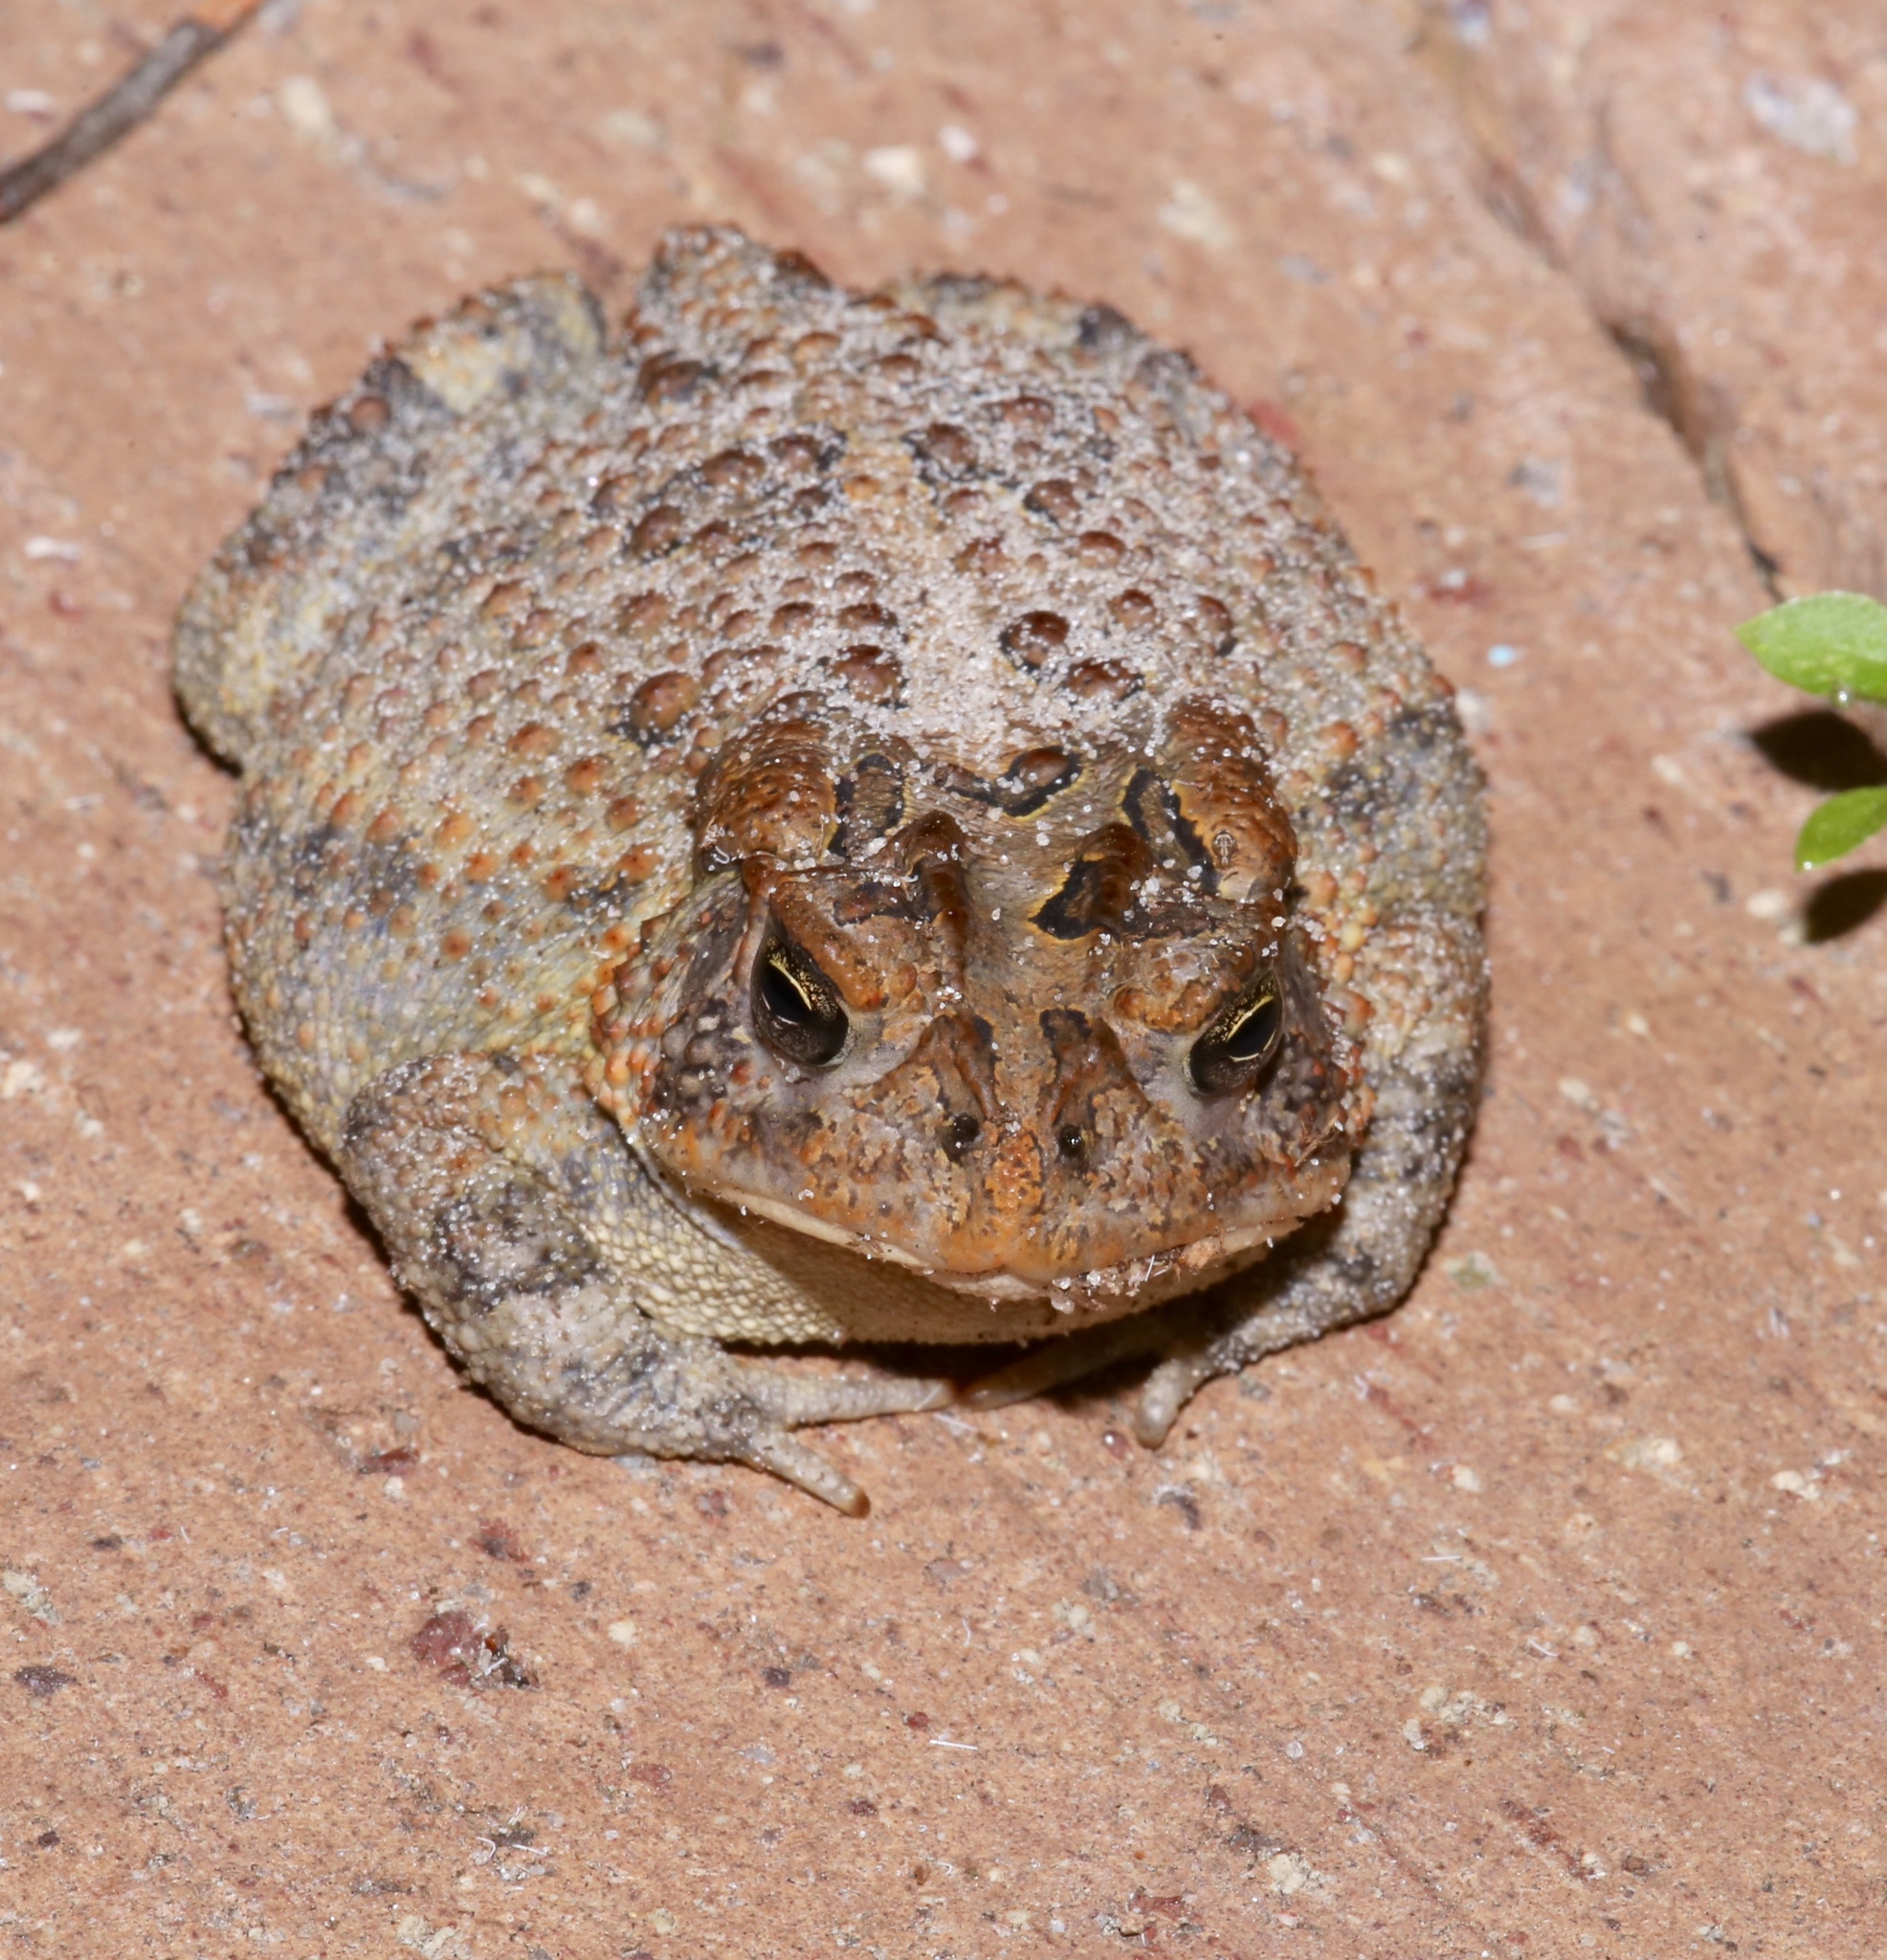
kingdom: Animalia
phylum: Chordata
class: Amphibia
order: Anura
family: Bufonidae
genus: Anaxyrus
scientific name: Anaxyrus terrestris
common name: Southern toad
